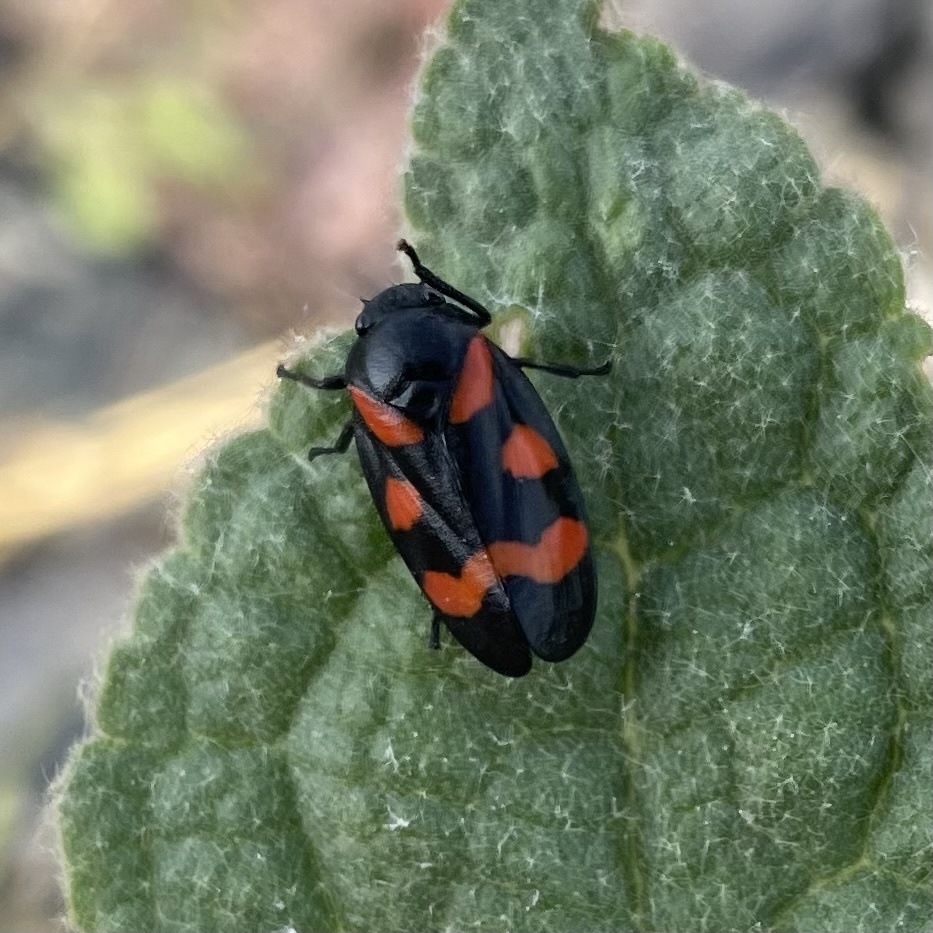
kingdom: Animalia
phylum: Arthropoda
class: Insecta
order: Hemiptera
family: Cercopidae
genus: Cercopis
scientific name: Cercopis sanguinolenta
